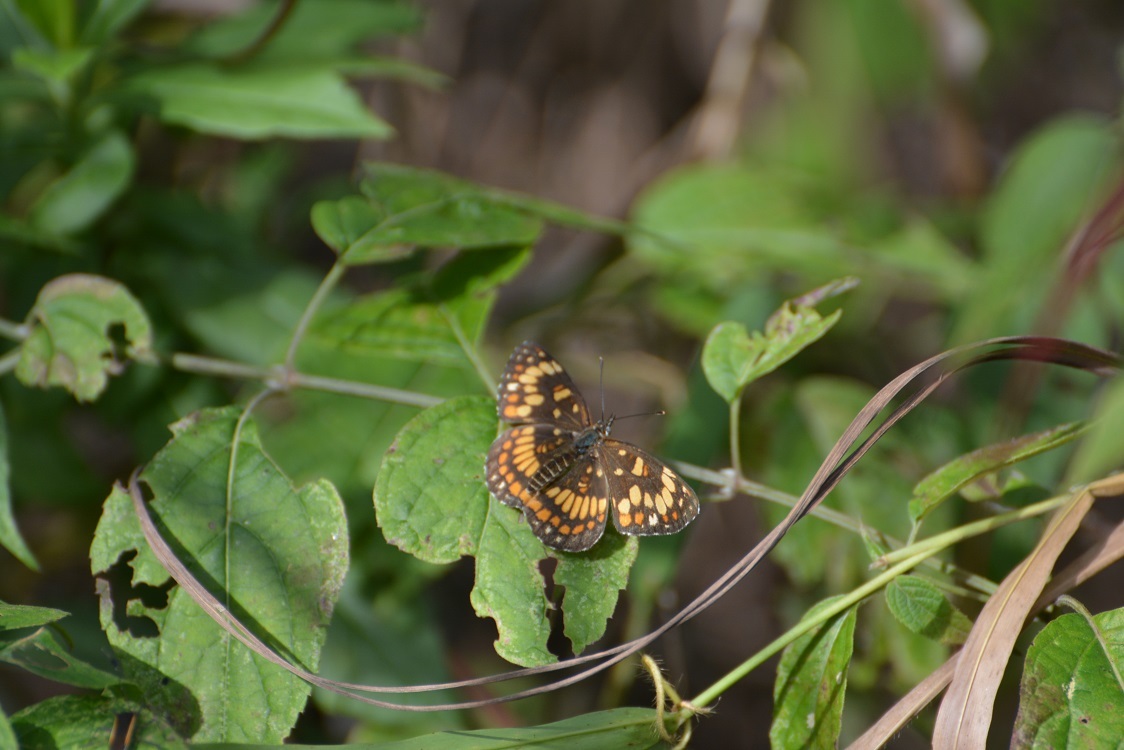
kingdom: Animalia
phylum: Arthropoda
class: Insecta
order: Lepidoptera
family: Nymphalidae
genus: Thessalia
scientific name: Thessalia theona
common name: Nymphalid moth
